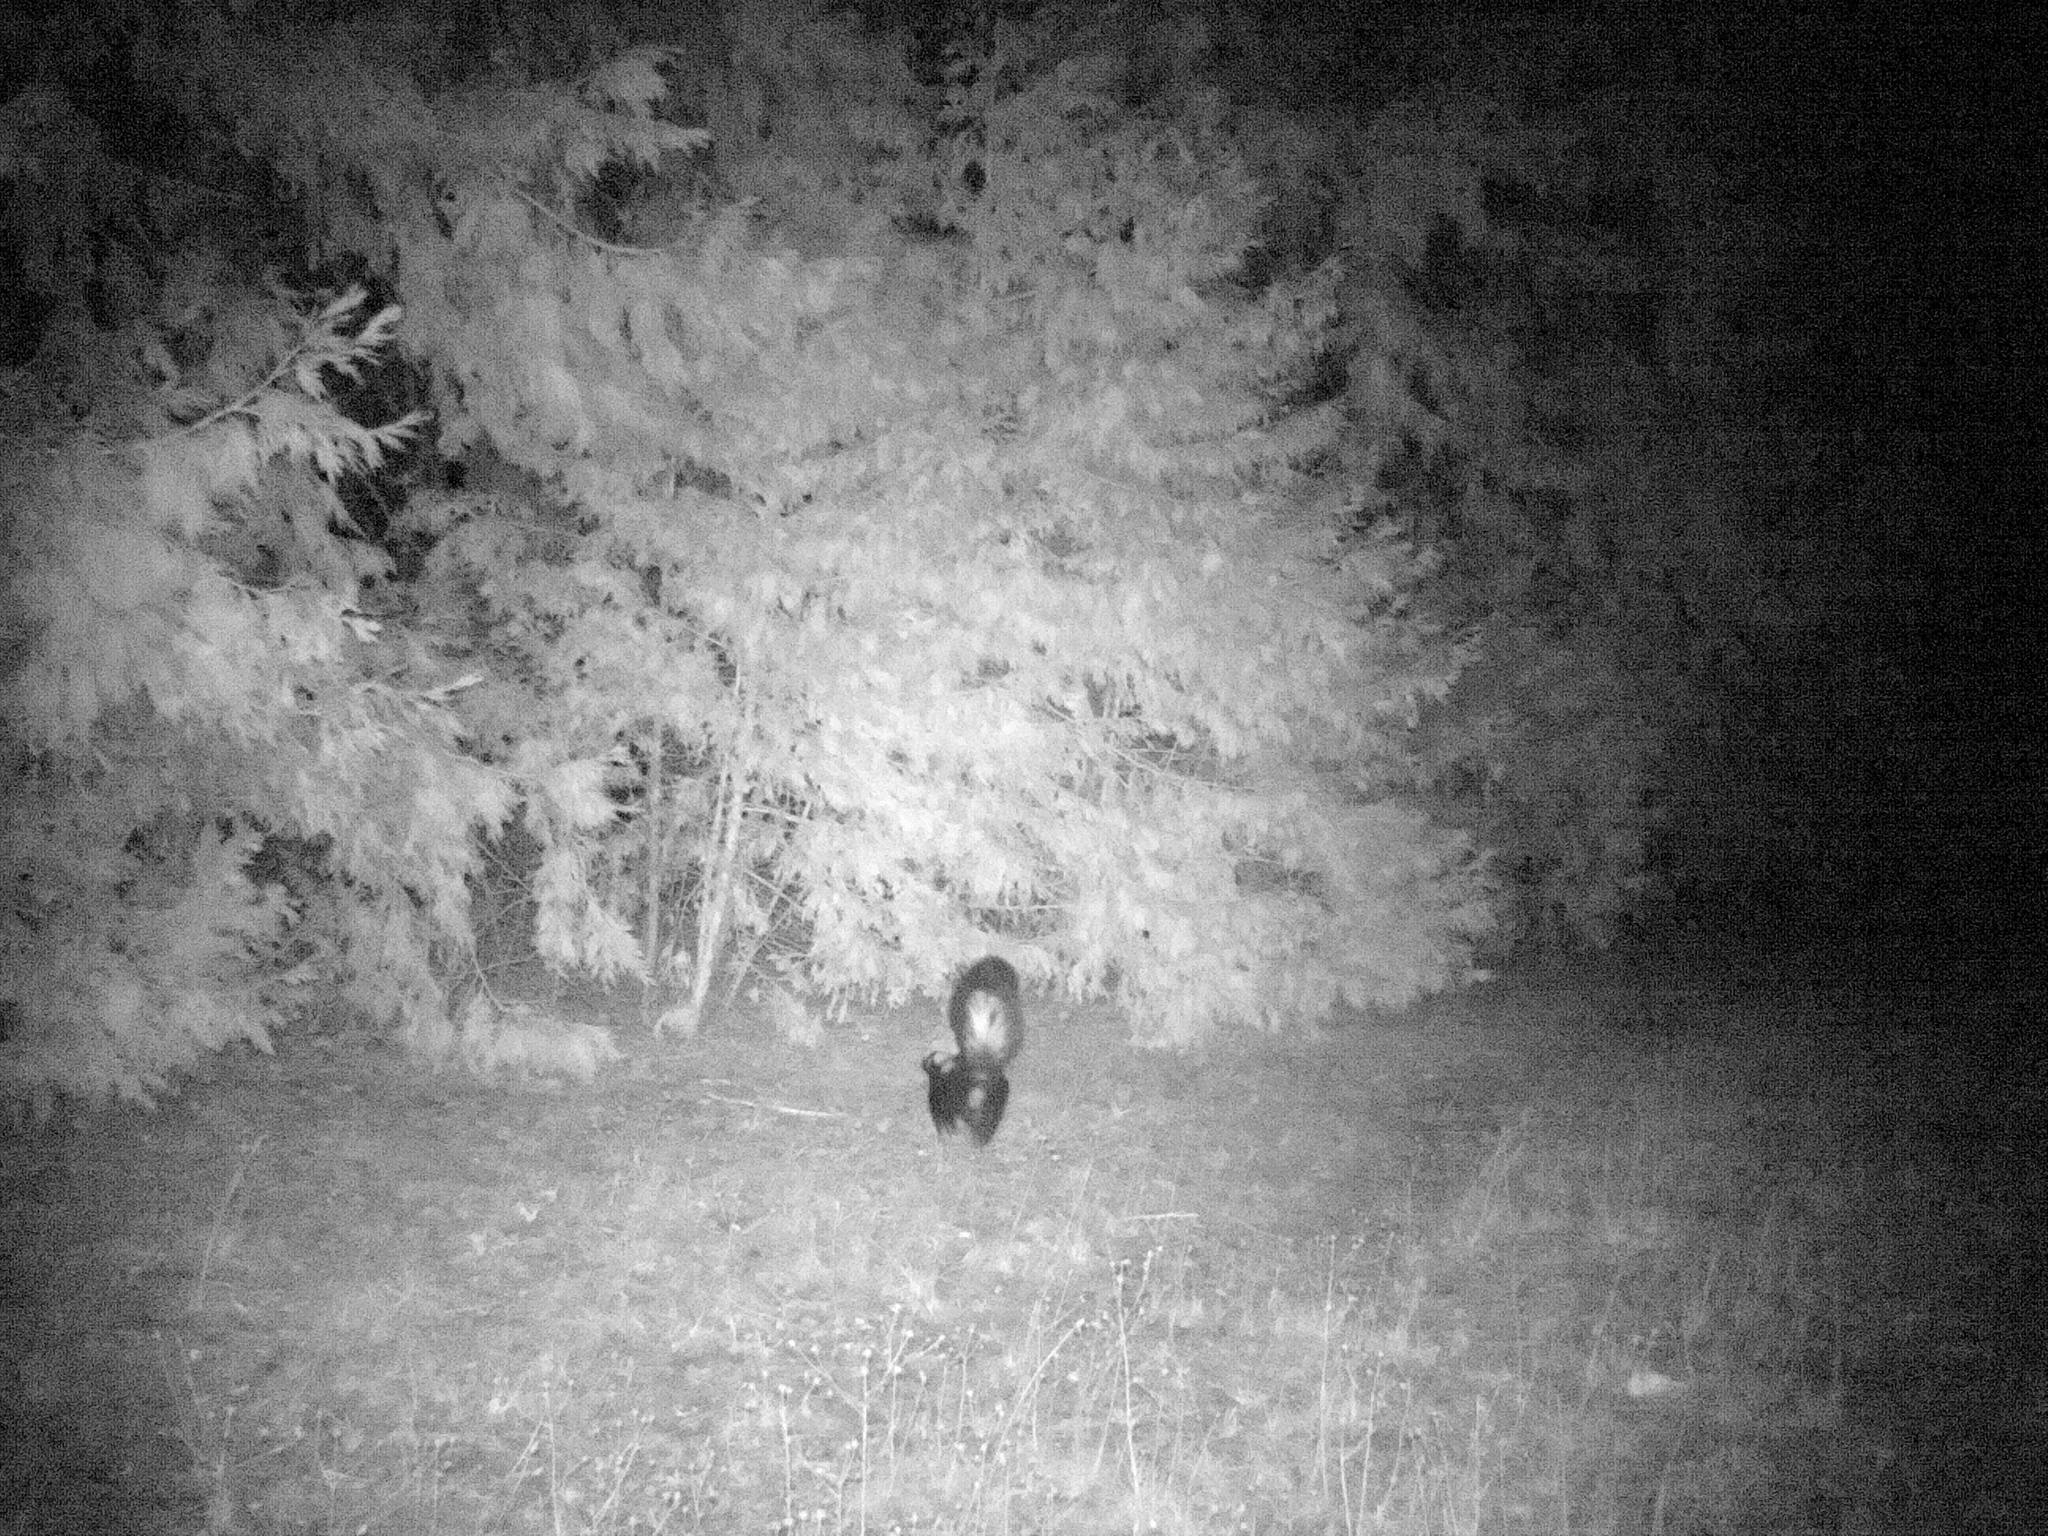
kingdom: Animalia
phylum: Chordata
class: Mammalia
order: Carnivora
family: Mephitidae
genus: Mephitis
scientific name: Mephitis mephitis
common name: Striped skunk
